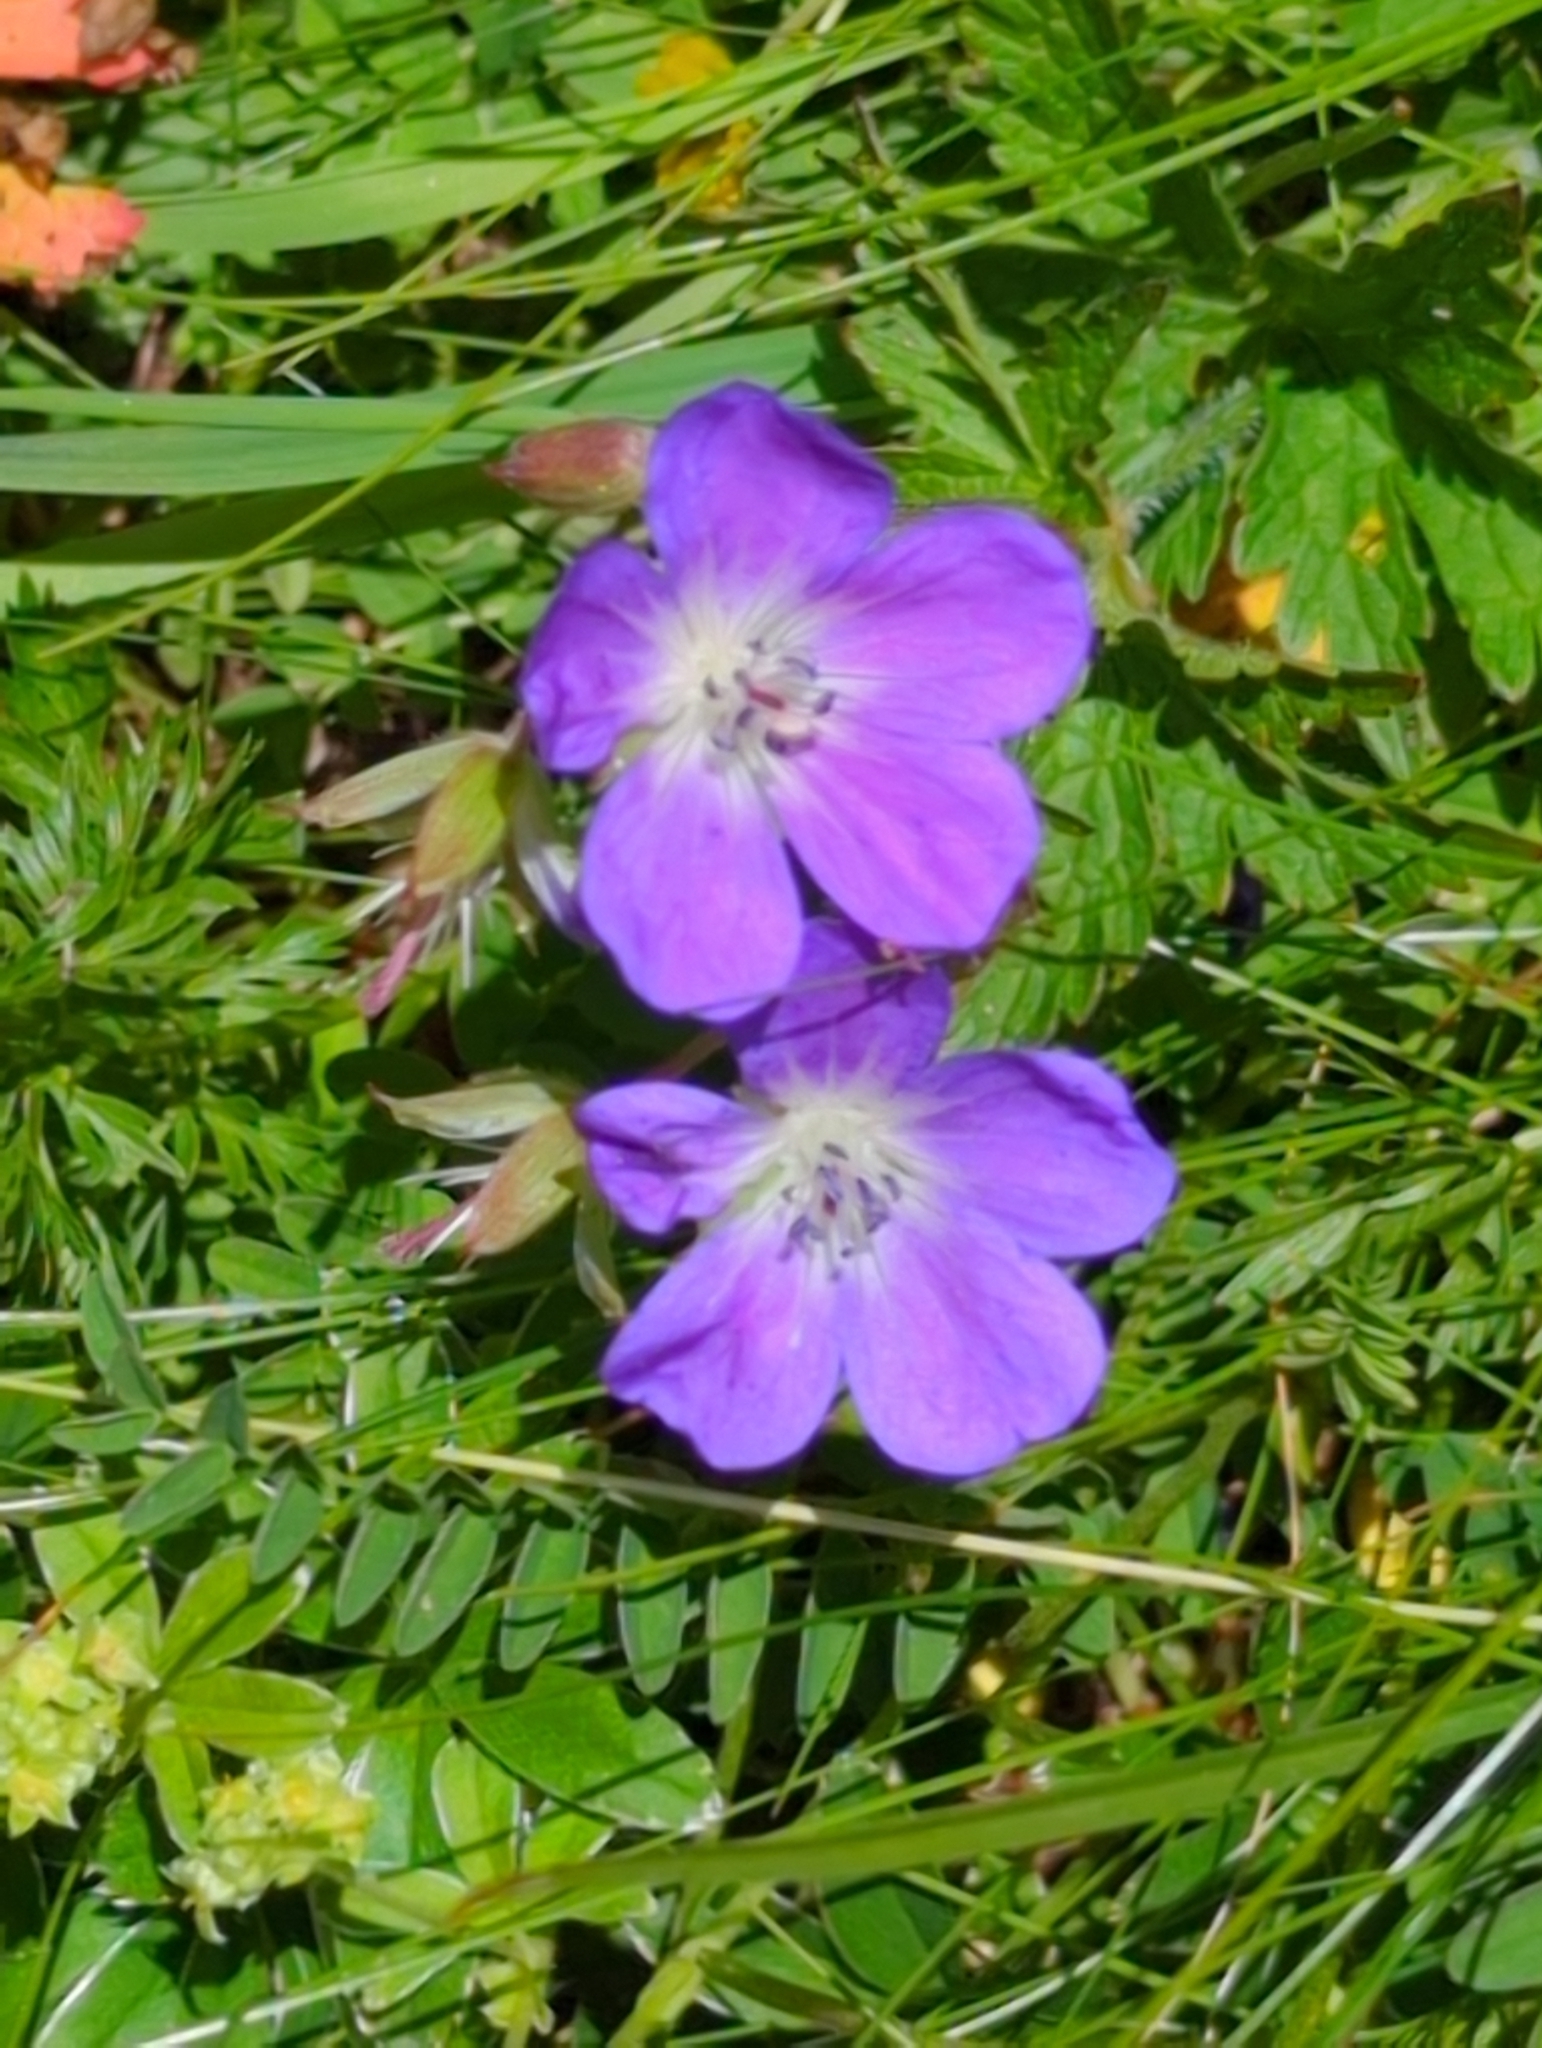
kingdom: Plantae
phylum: Tracheophyta
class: Magnoliopsida
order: Geraniales
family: Geraniaceae
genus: Geranium
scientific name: Geranium sylvaticum
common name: Wood crane's-bill
